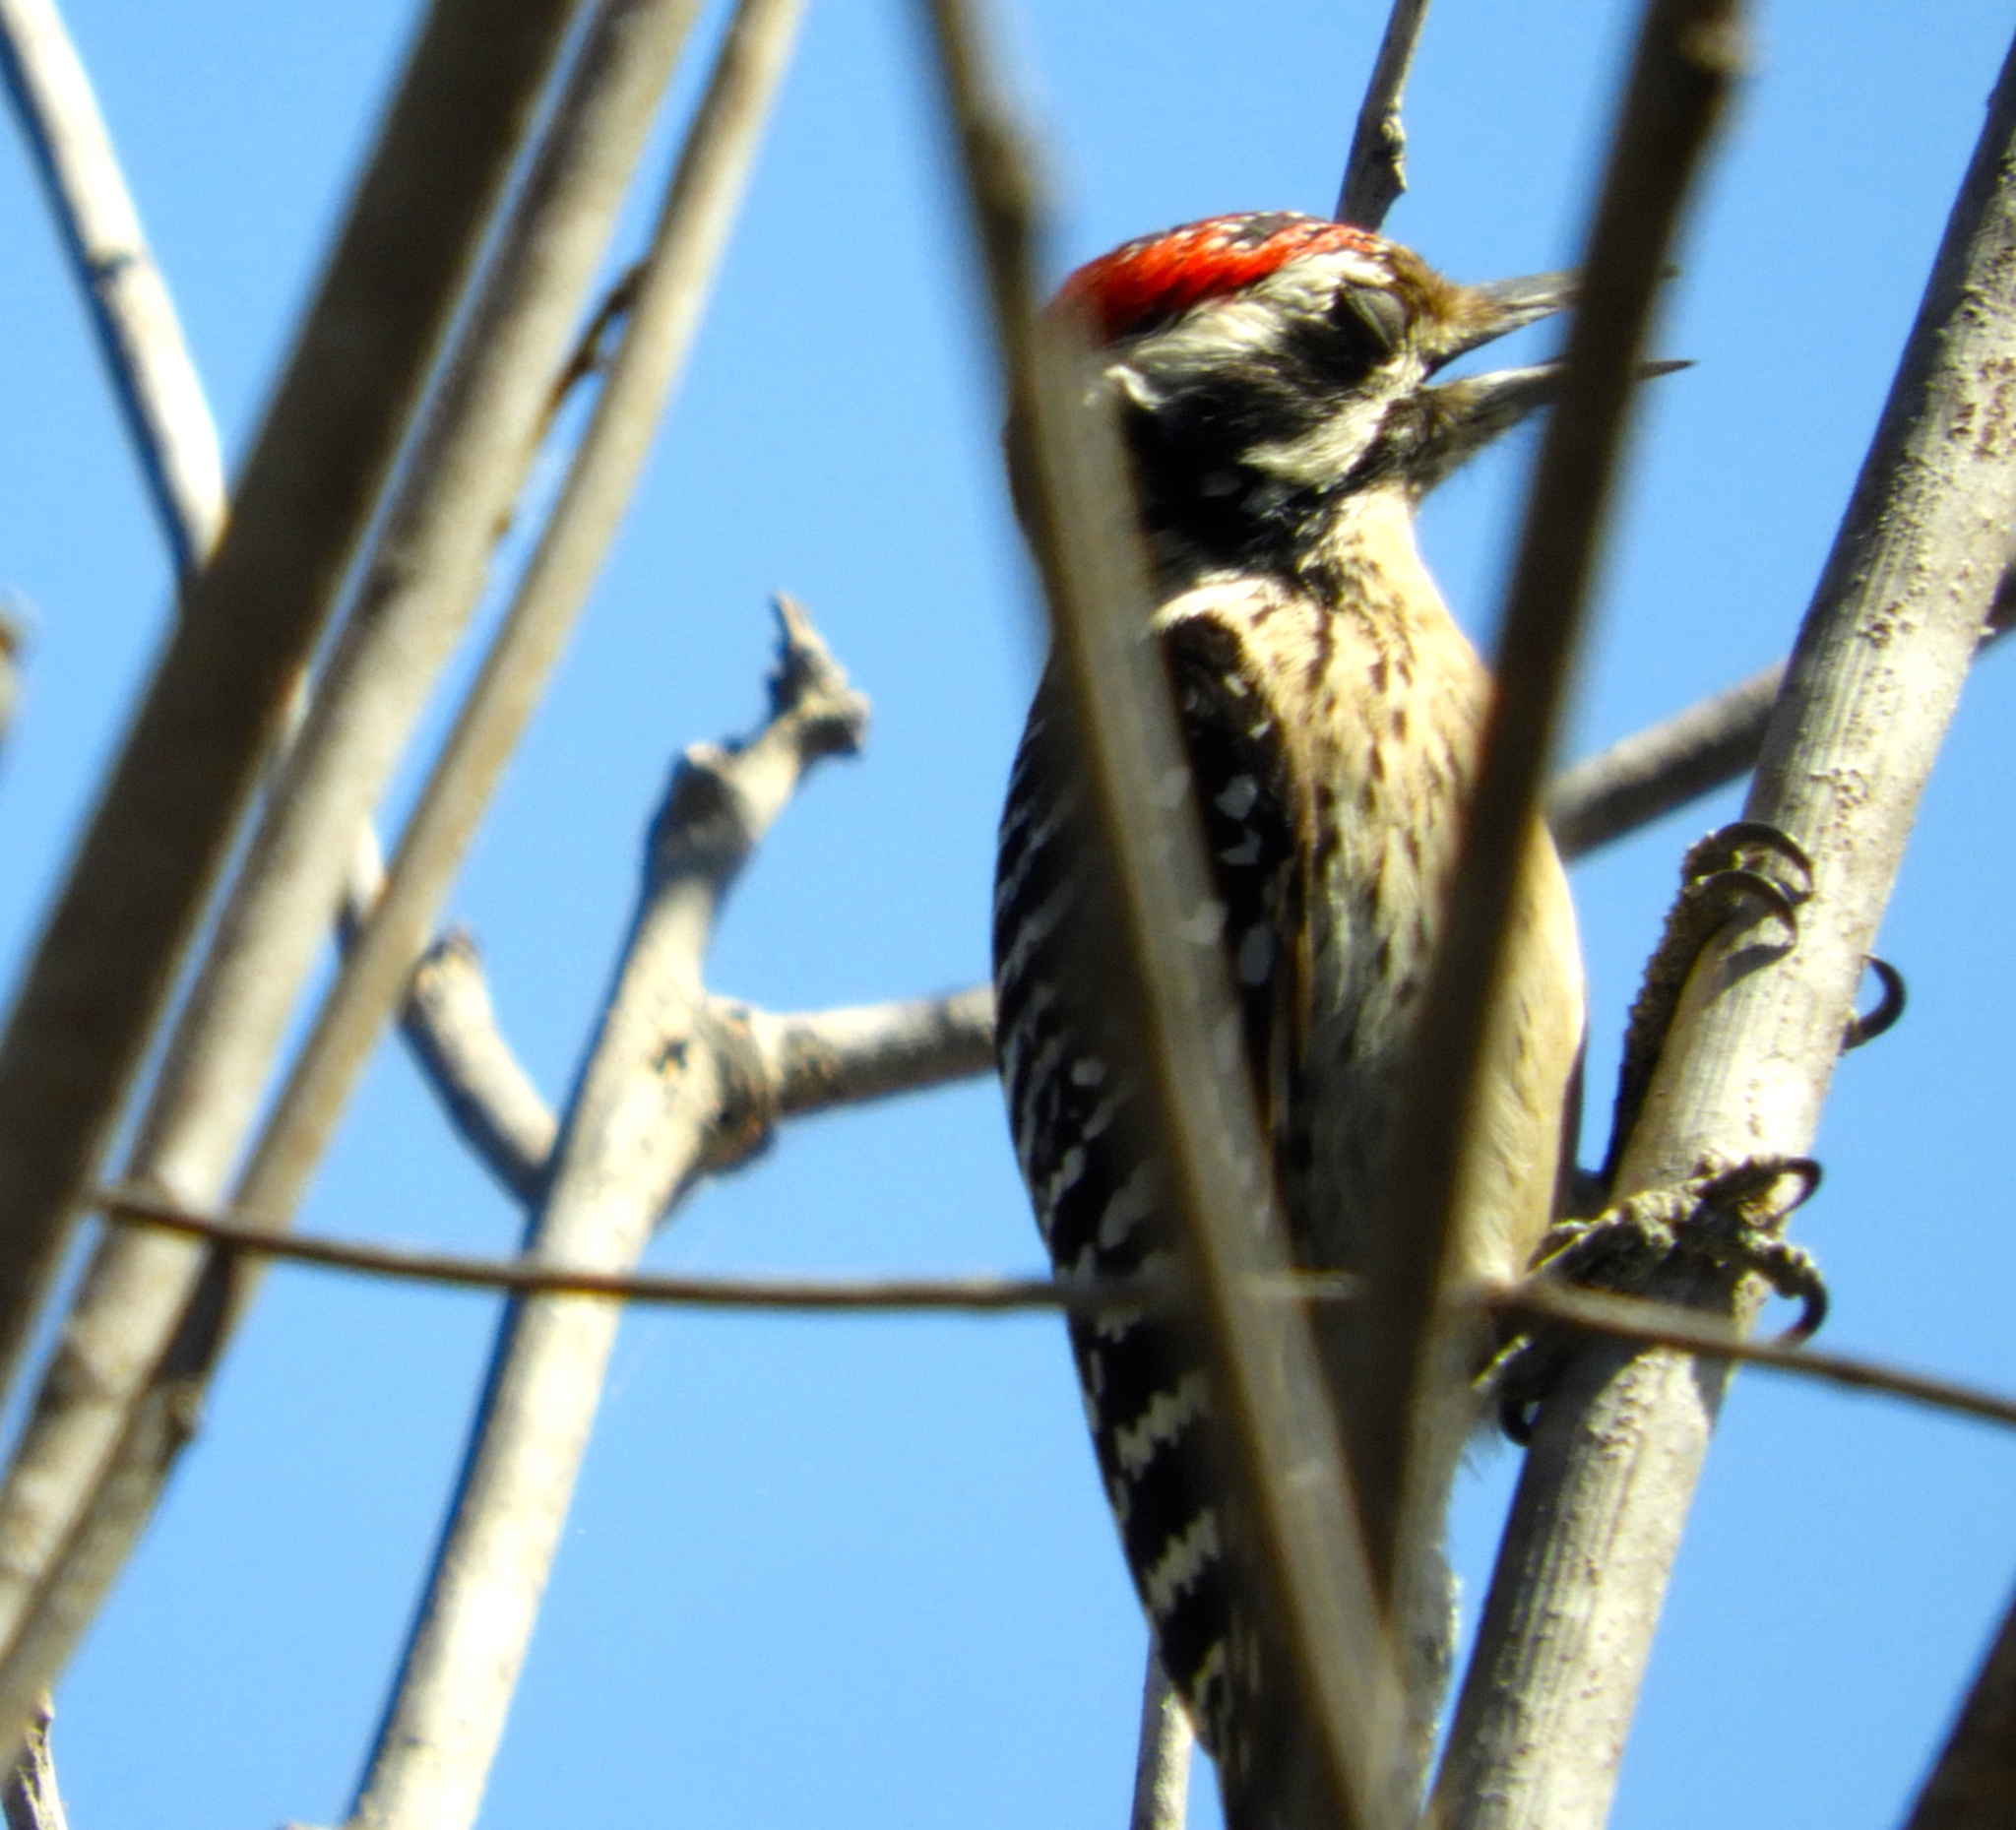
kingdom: Animalia
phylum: Chordata
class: Aves
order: Piciformes
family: Picidae
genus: Dryobates
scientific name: Dryobates scalaris
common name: Ladder-backed woodpecker
